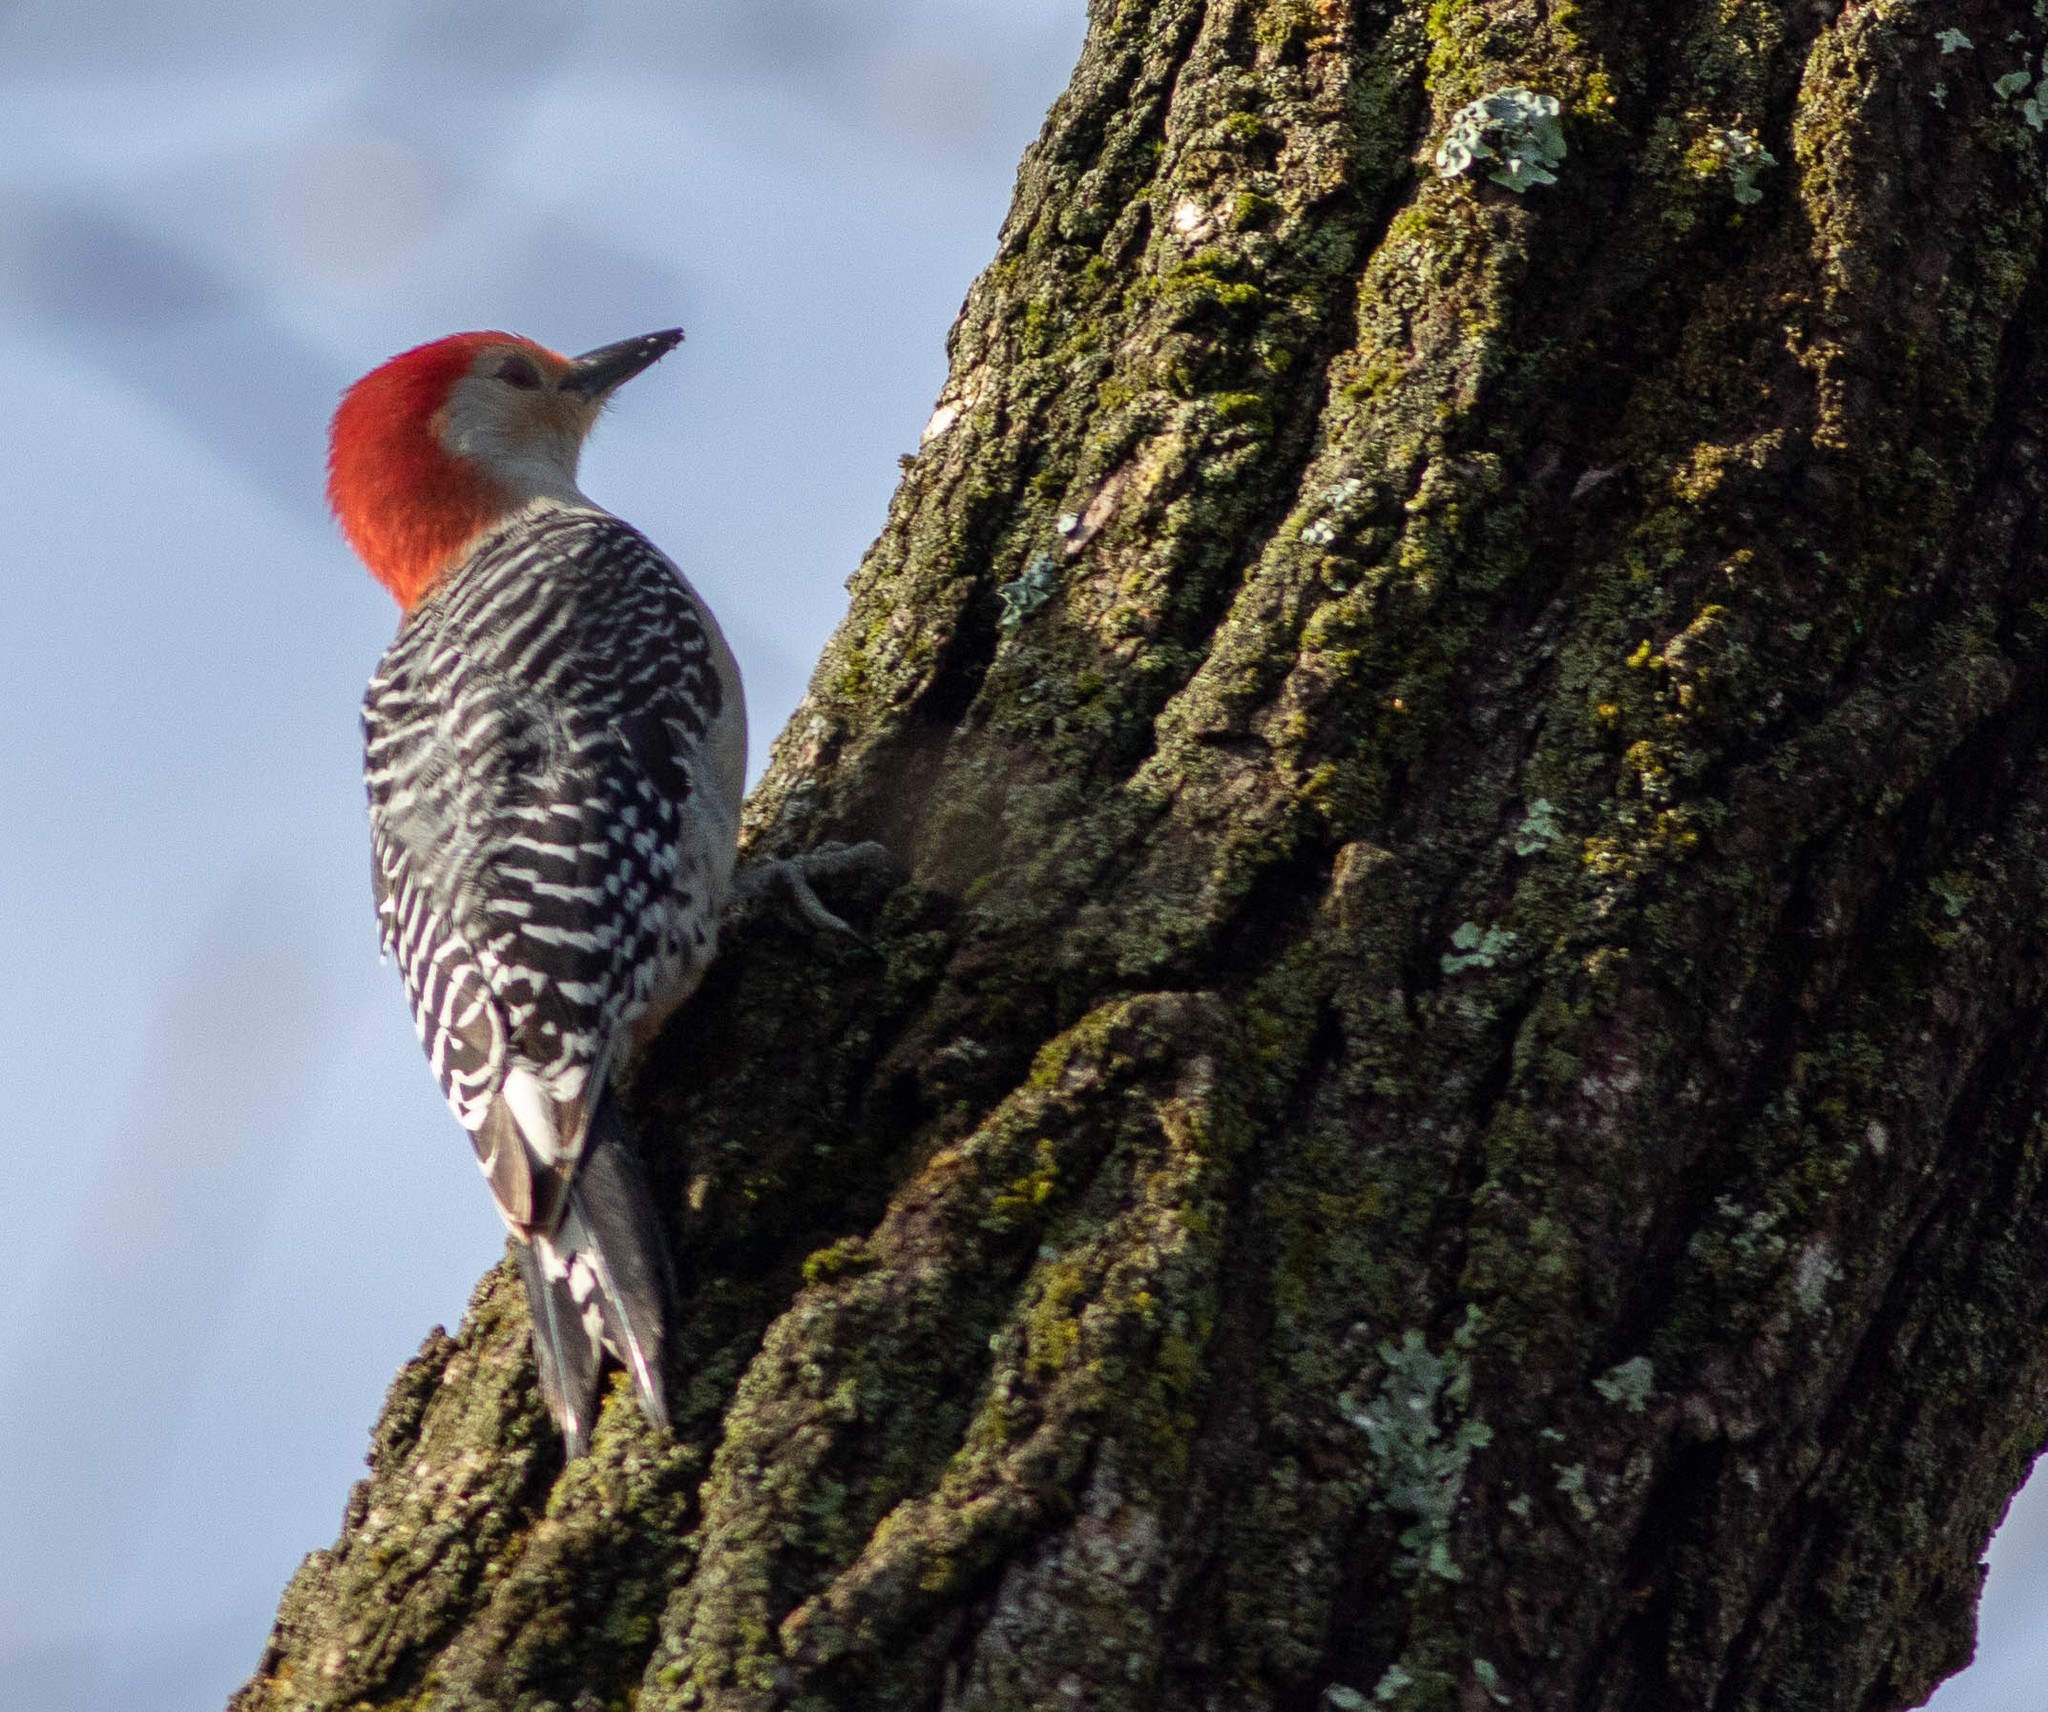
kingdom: Animalia
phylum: Chordata
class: Aves
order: Piciformes
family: Picidae
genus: Melanerpes
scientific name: Melanerpes carolinus
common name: Red-bellied woodpecker
